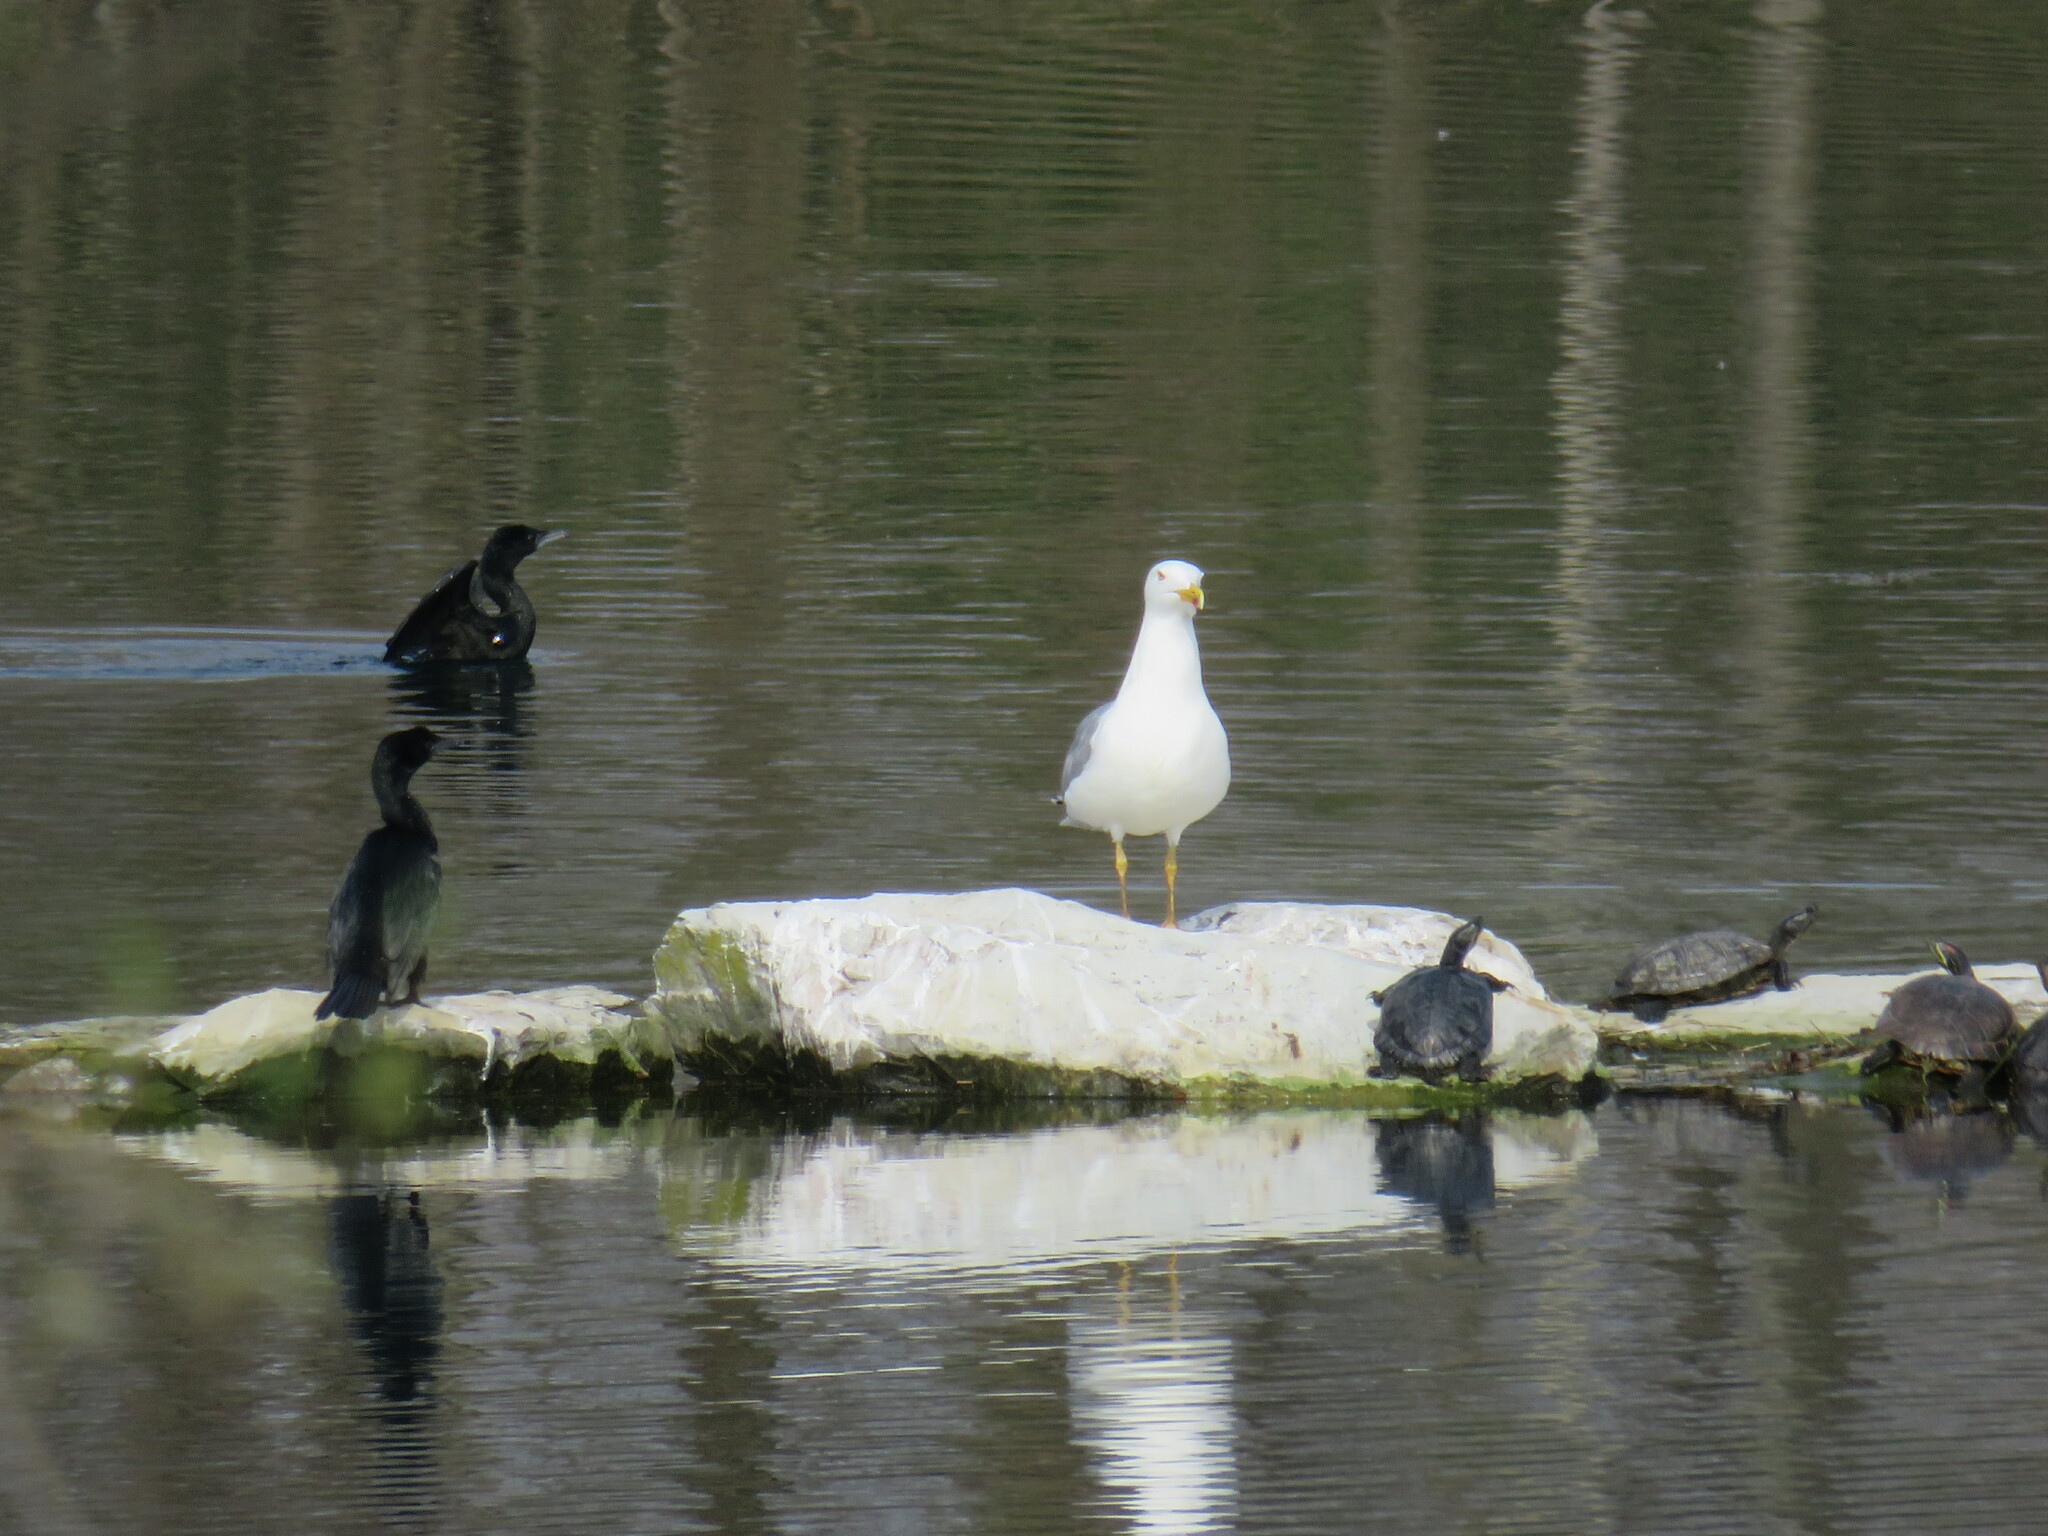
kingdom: Animalia
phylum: Chordata
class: Testudines
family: Emydidae
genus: Trachemys
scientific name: Trachemys scripta
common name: Slider
